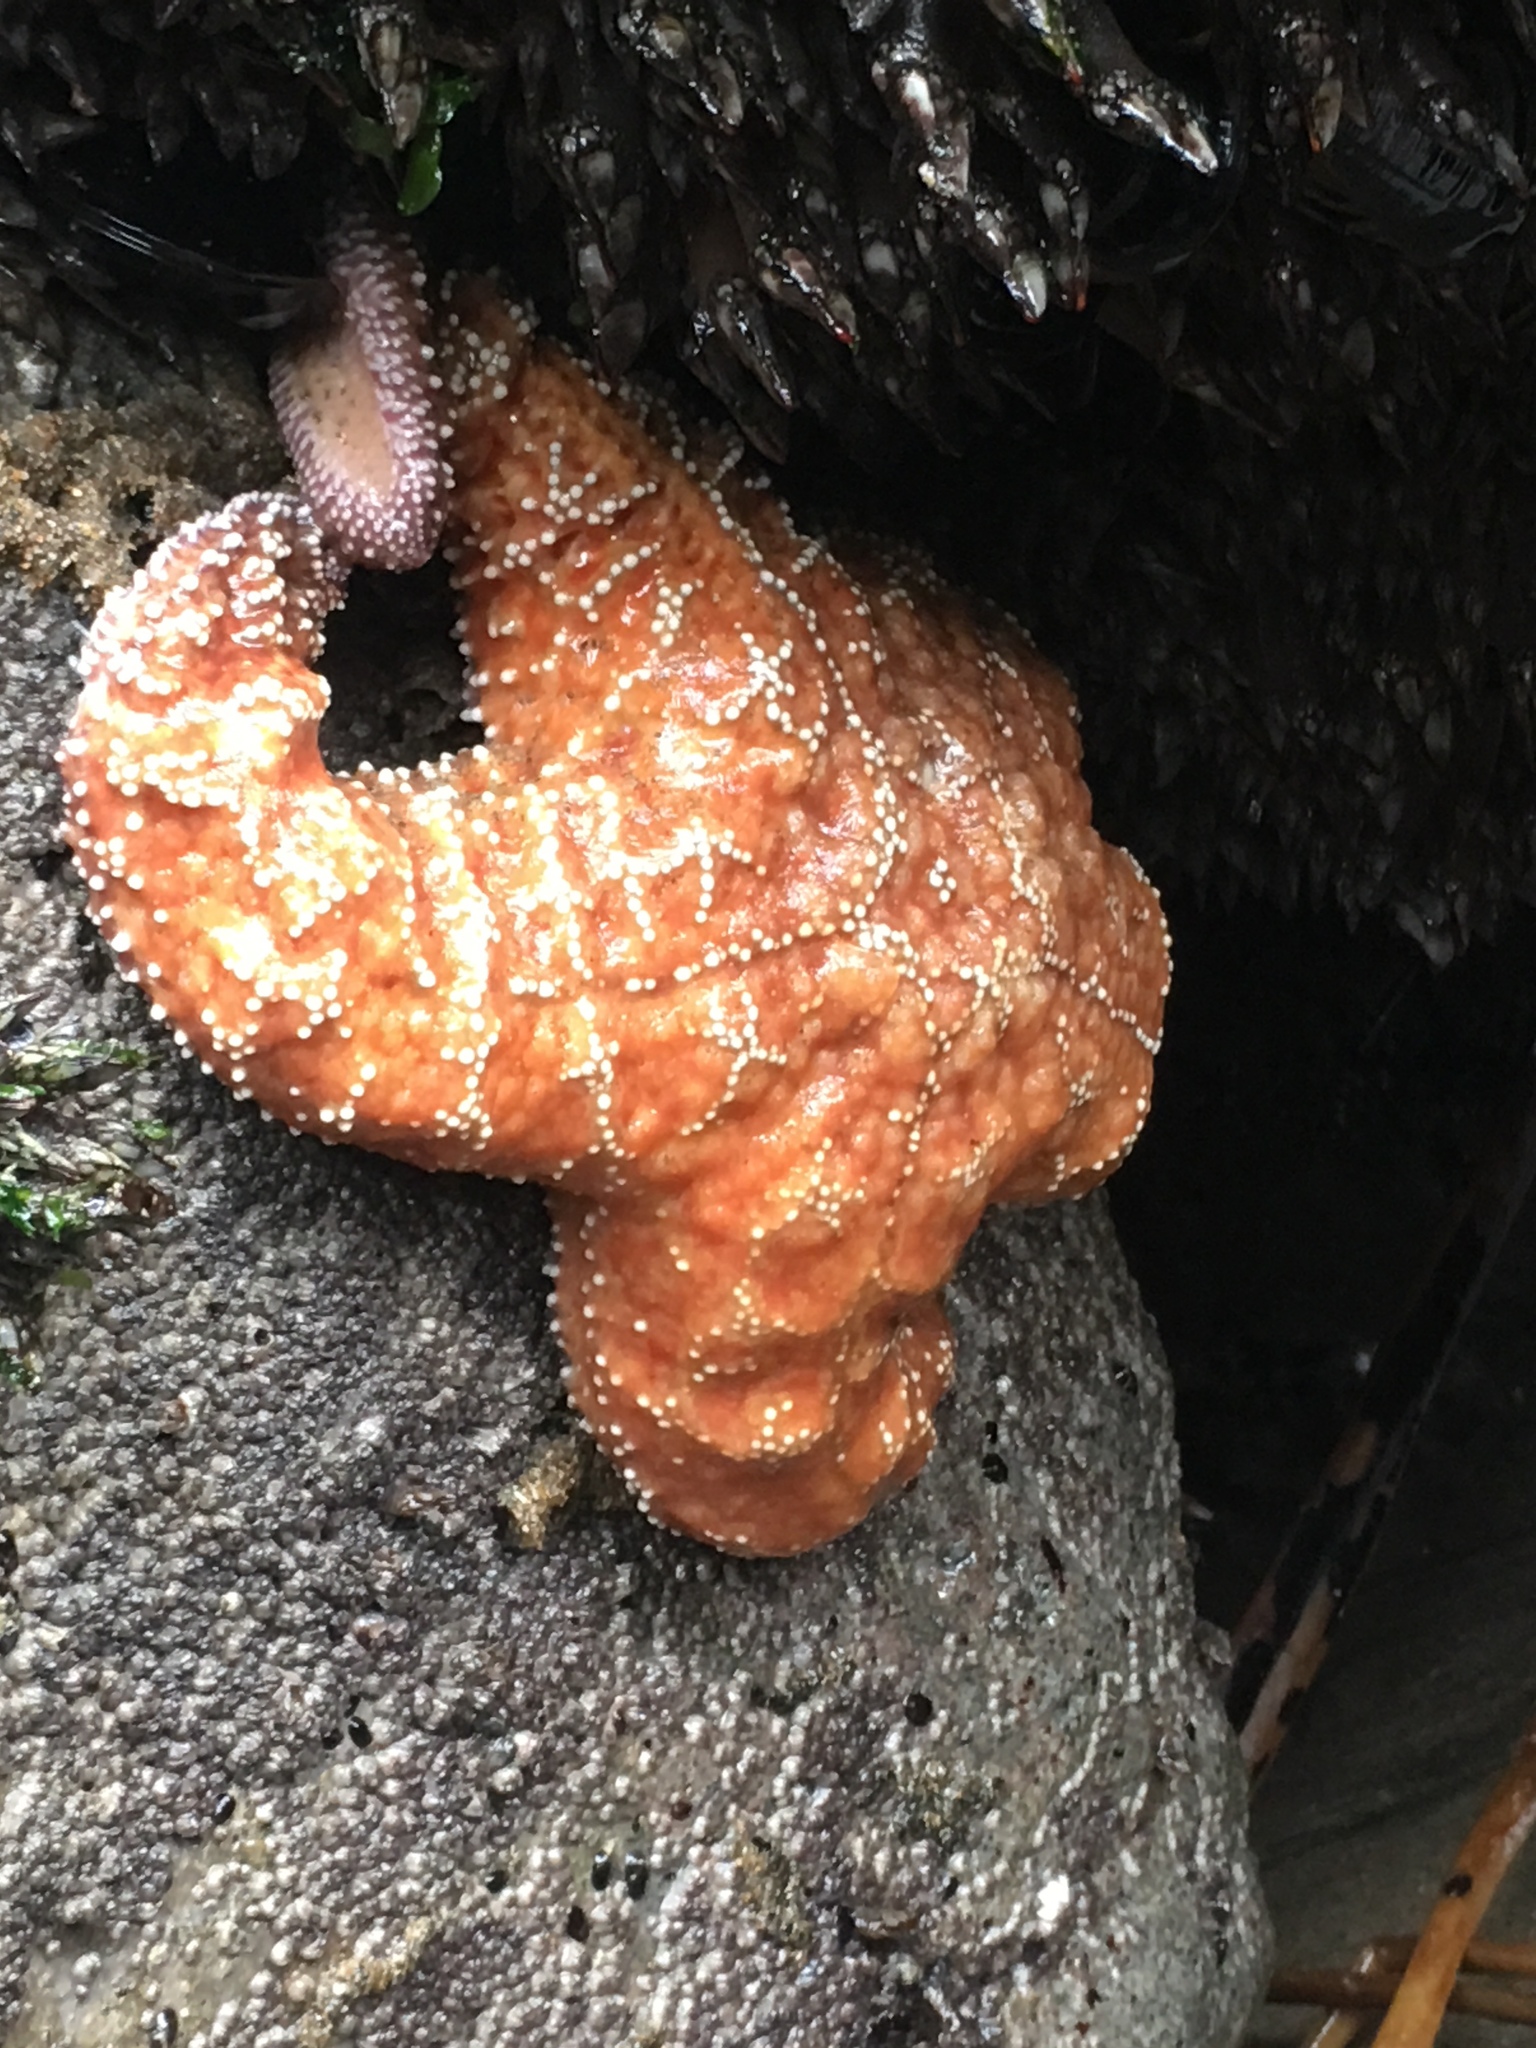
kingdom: Animalia
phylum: Echinodermata
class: Asteroidea
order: Forcipulatida
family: Asteriidae
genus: Pisaster
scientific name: Pisaster ochraceus
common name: Ochre stars
